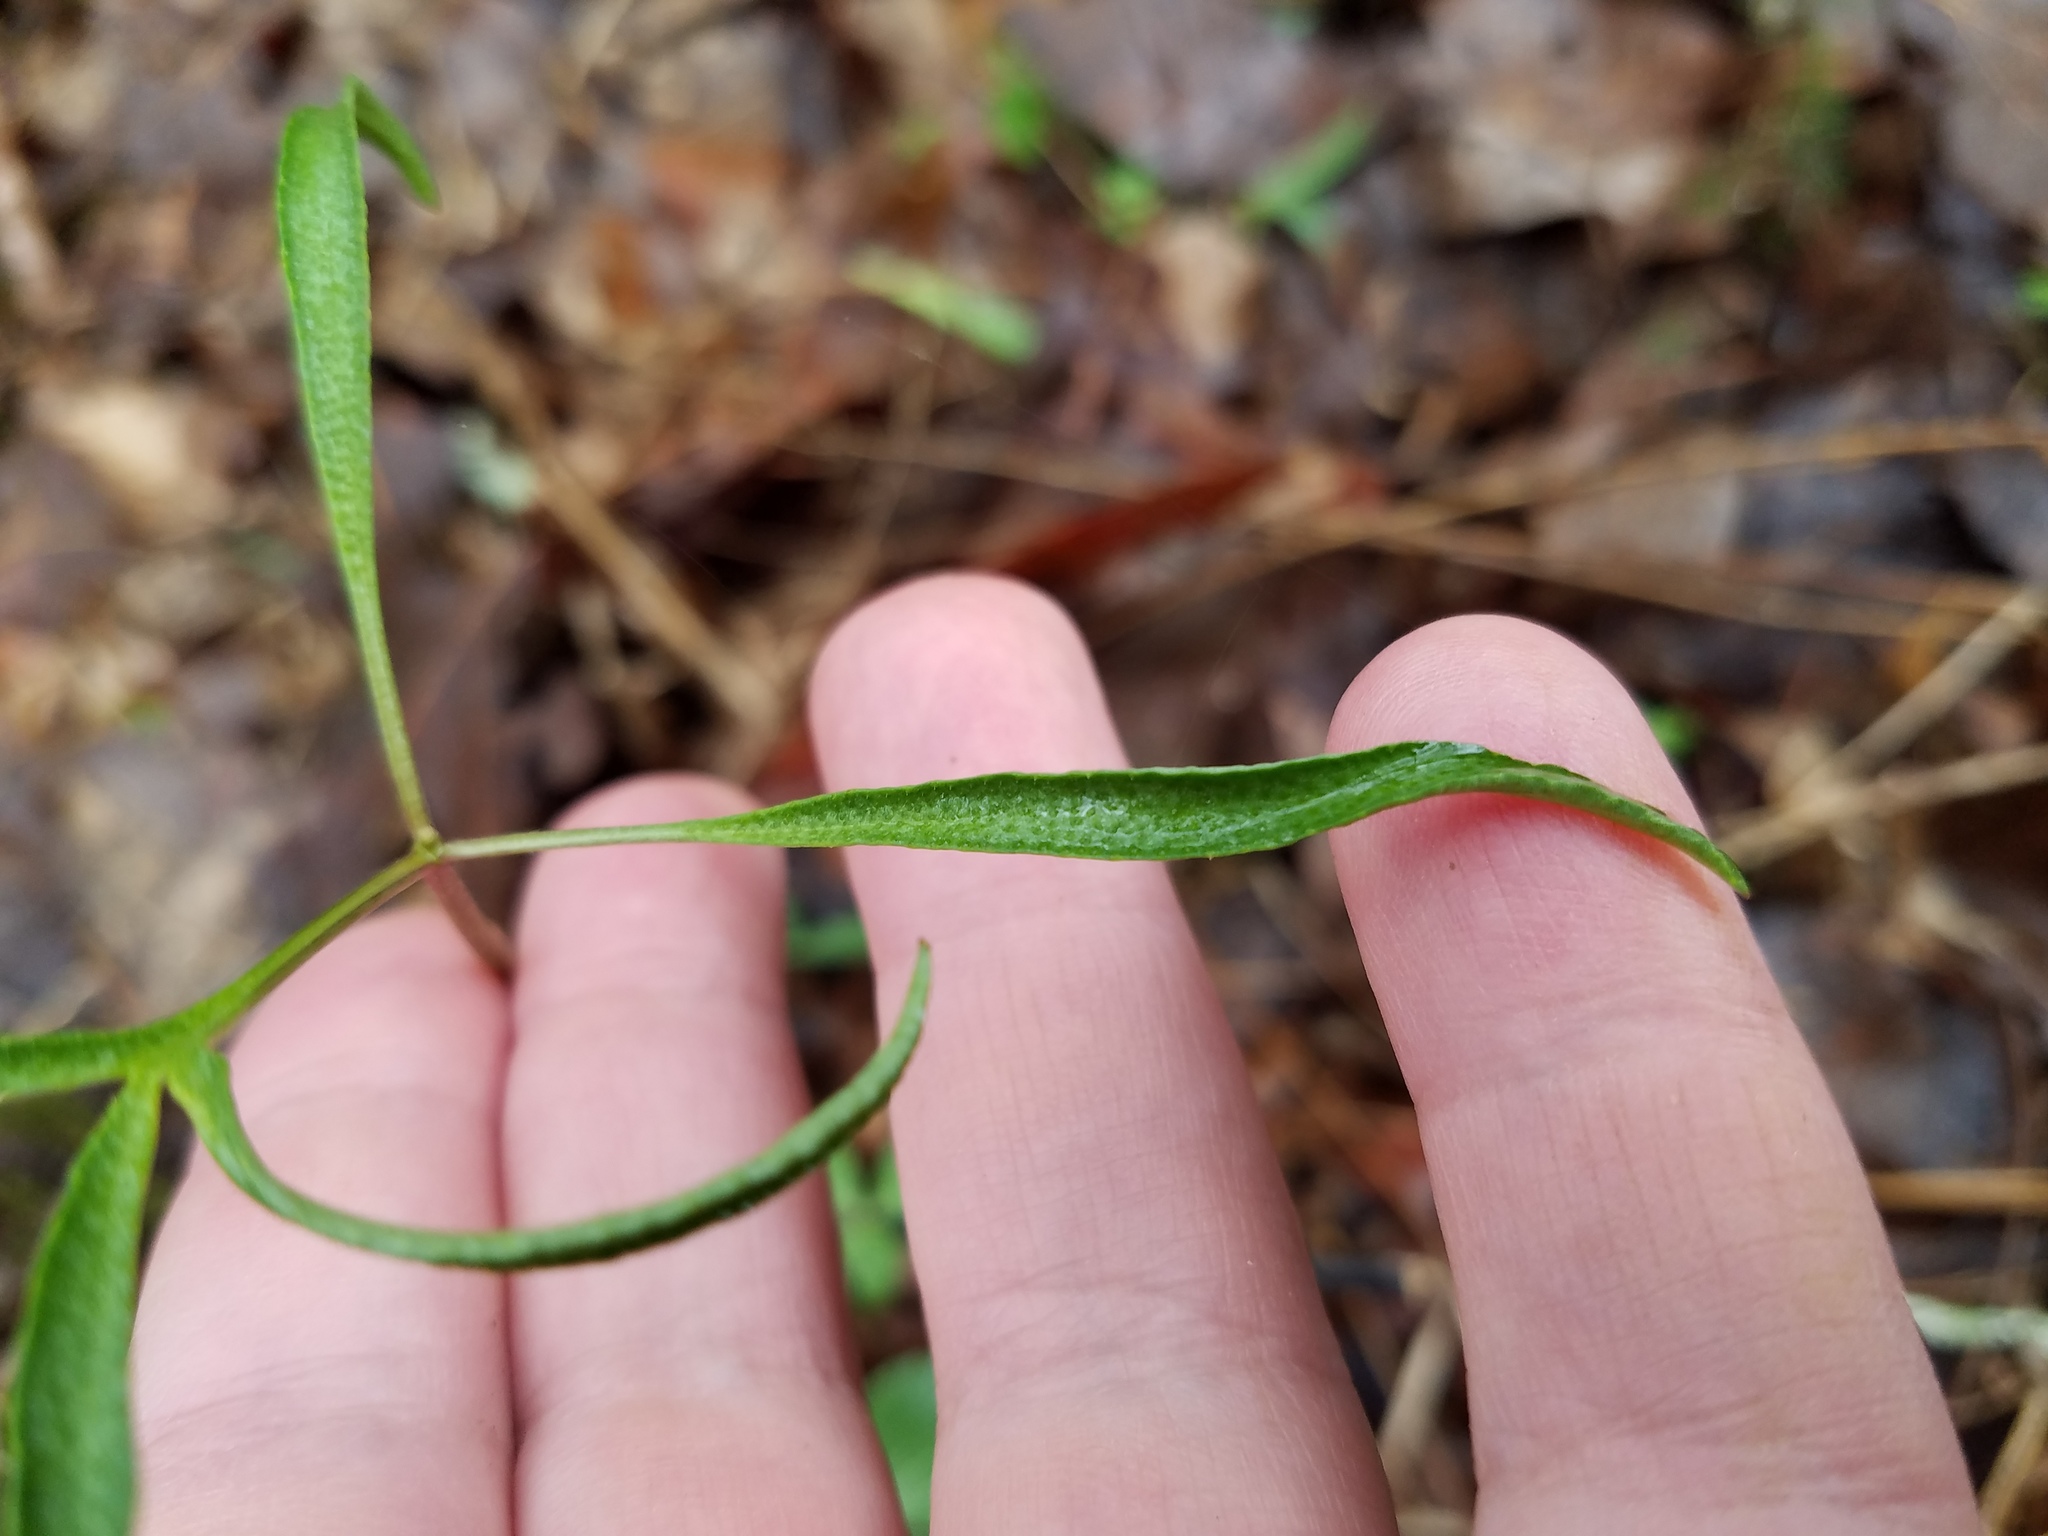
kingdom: Plantae
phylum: Tracheophyta
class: Magnoliopsida
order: Ranunculales
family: Ranunculaceae
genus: Anemone
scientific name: Anemone berlandieri
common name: Ten-petal anemone
